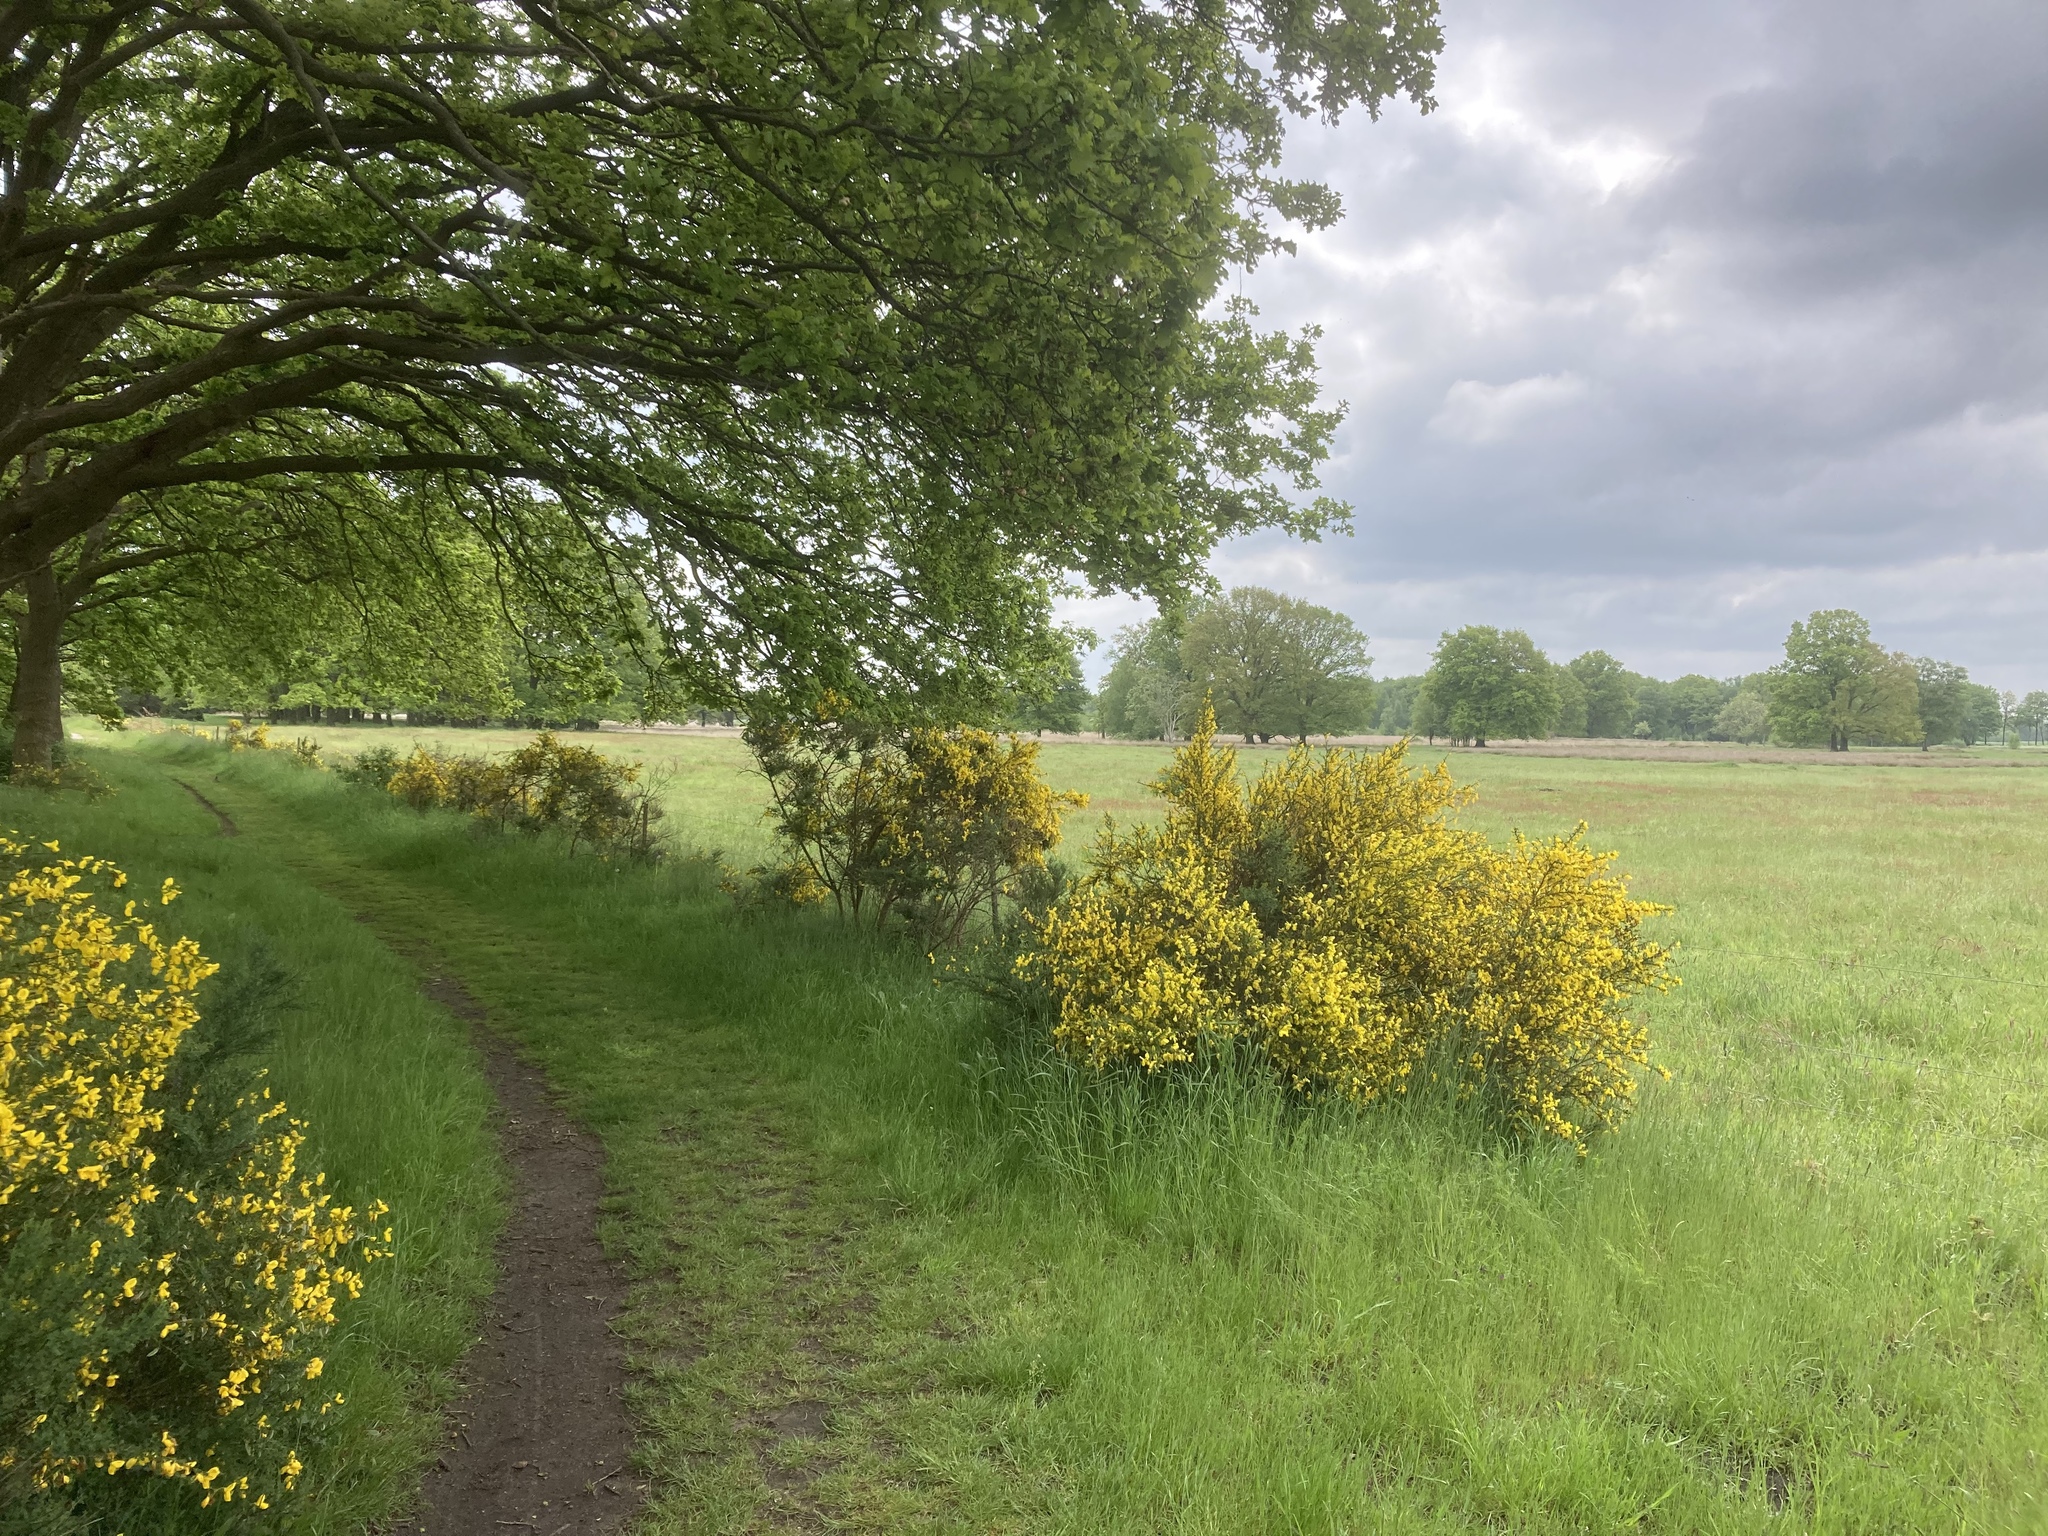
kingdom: Plantae
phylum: Tracheophyta
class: Magnoliopsida
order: Fabales
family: Fabaceae
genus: Cytisus
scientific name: Cytisus scoparius
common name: Scotch broom
